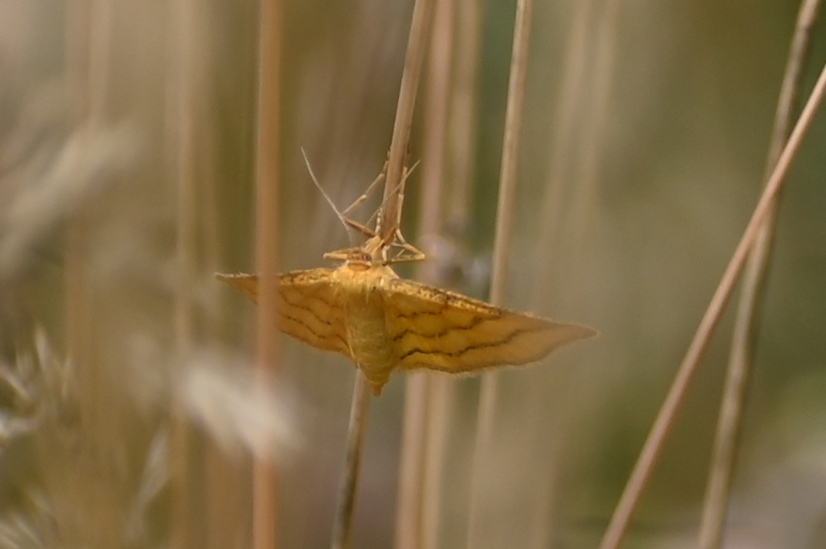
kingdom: Animalia
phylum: Arthropoda
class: Insecta
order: Lepidoptera
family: Geometridae
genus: Idaea
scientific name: Idaea aureolaria
